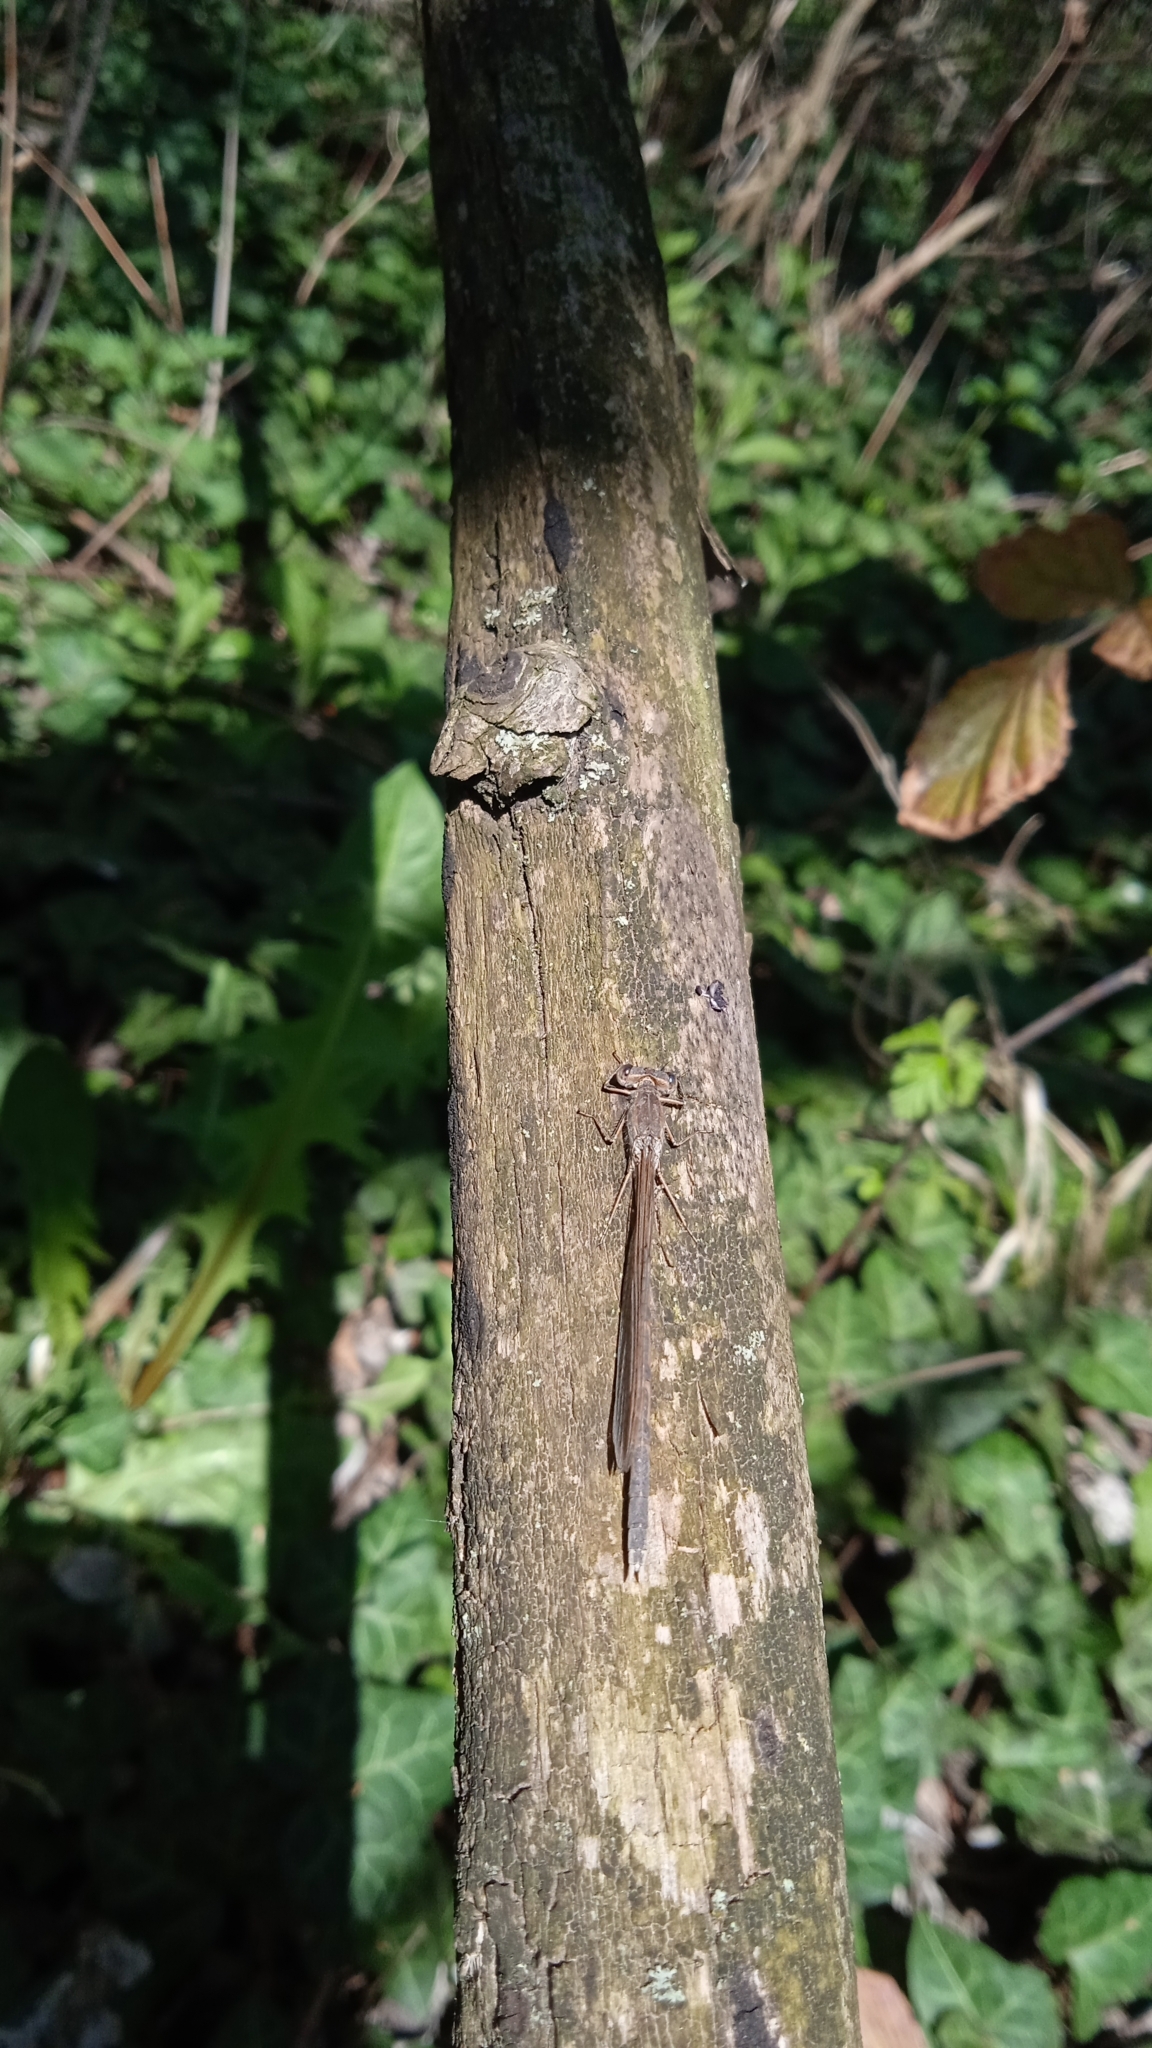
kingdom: Animalia
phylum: Arthropoda
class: Insecta
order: Odonata
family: Lestidae
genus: Sympecma
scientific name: Sympecma fusca
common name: Common winter damsel
